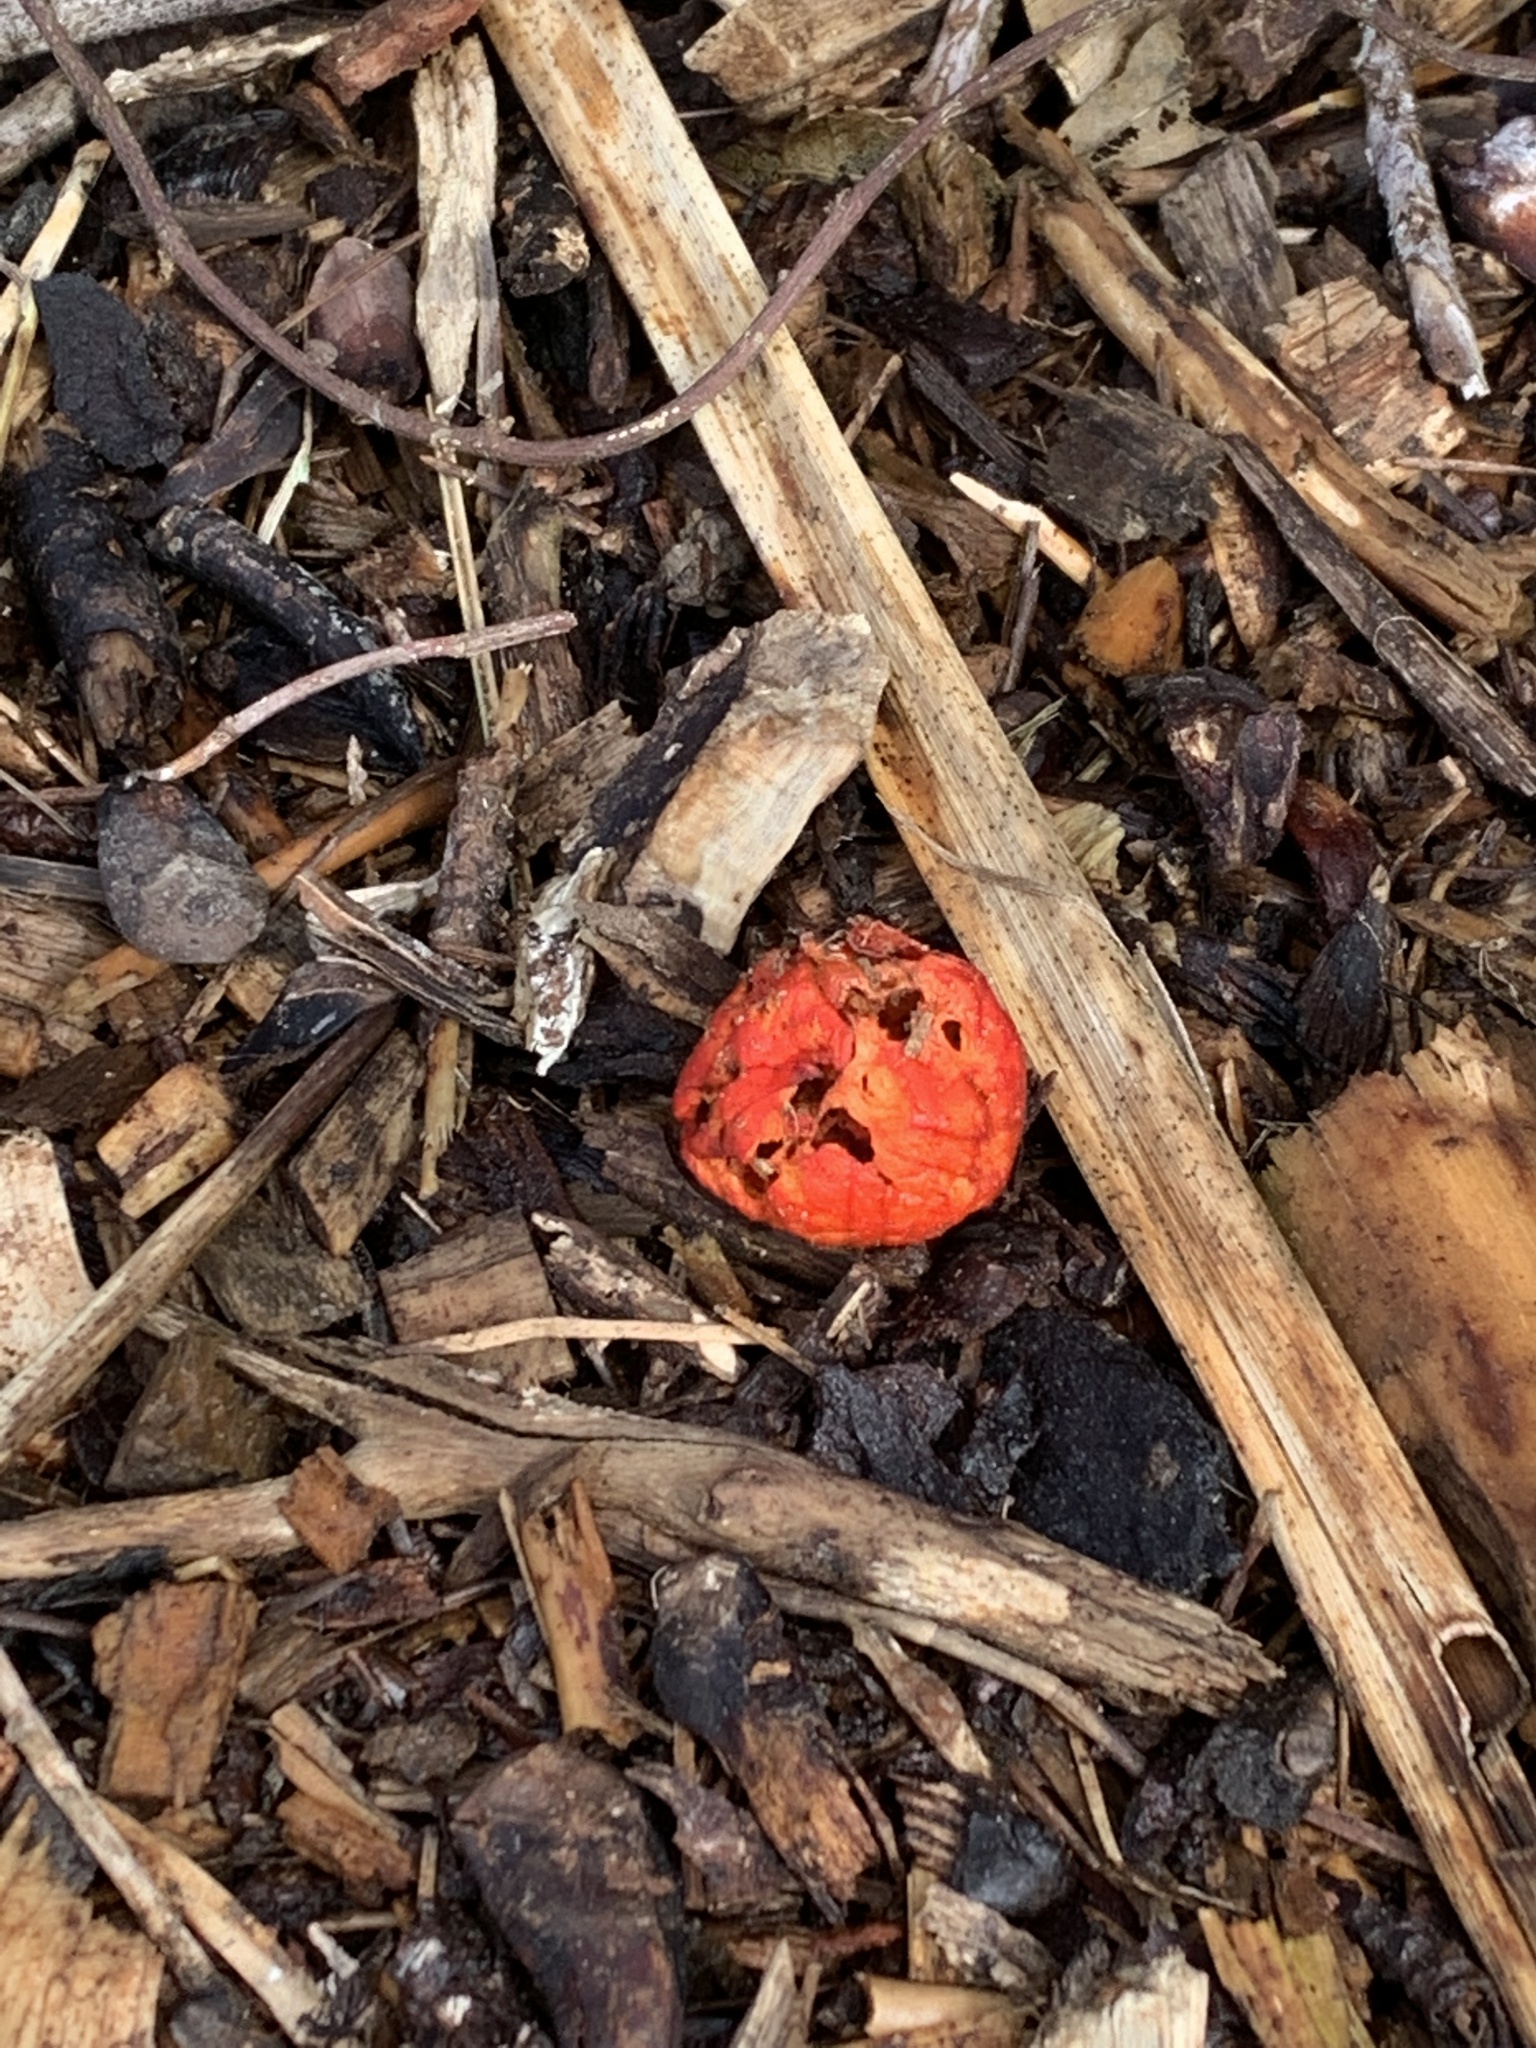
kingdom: Fungi
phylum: Basidiomycota
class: Agaricomycetes
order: Agaricales
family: Strophariaceae
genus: Leratiomyces
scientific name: Leratiomyces erythrocephalus
